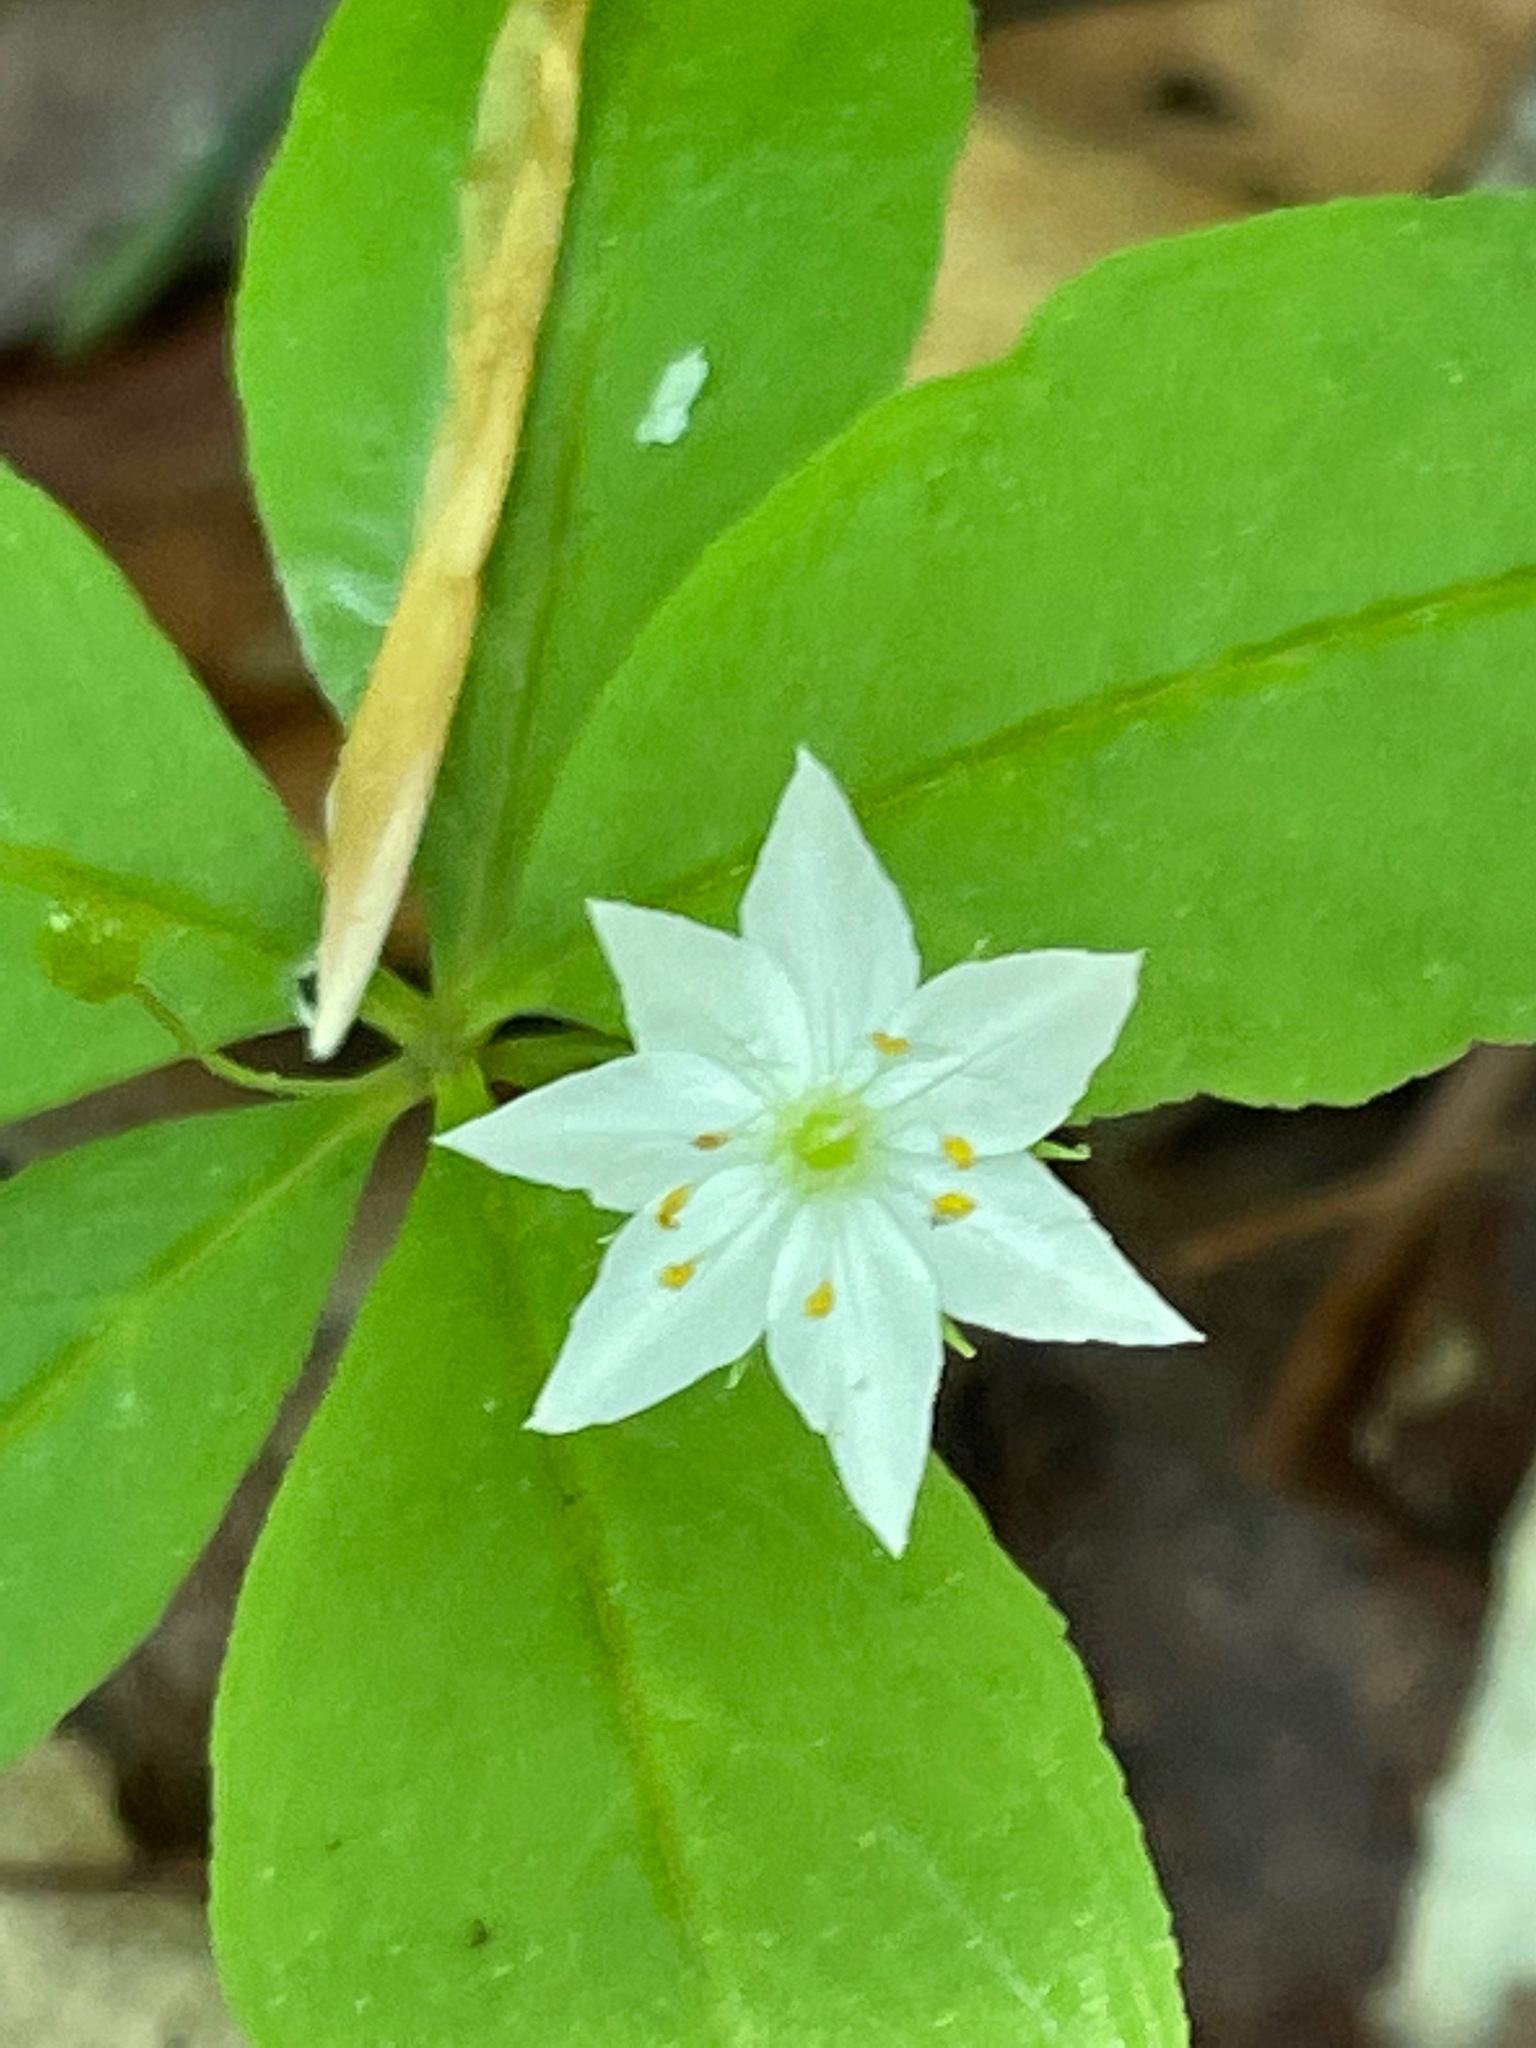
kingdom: Plantae
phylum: Tracheophyta
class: Magnoliopsida
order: Ericales
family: Primulaceae
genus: Lysimachia
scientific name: Lysimachia borealis
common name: American starflower
